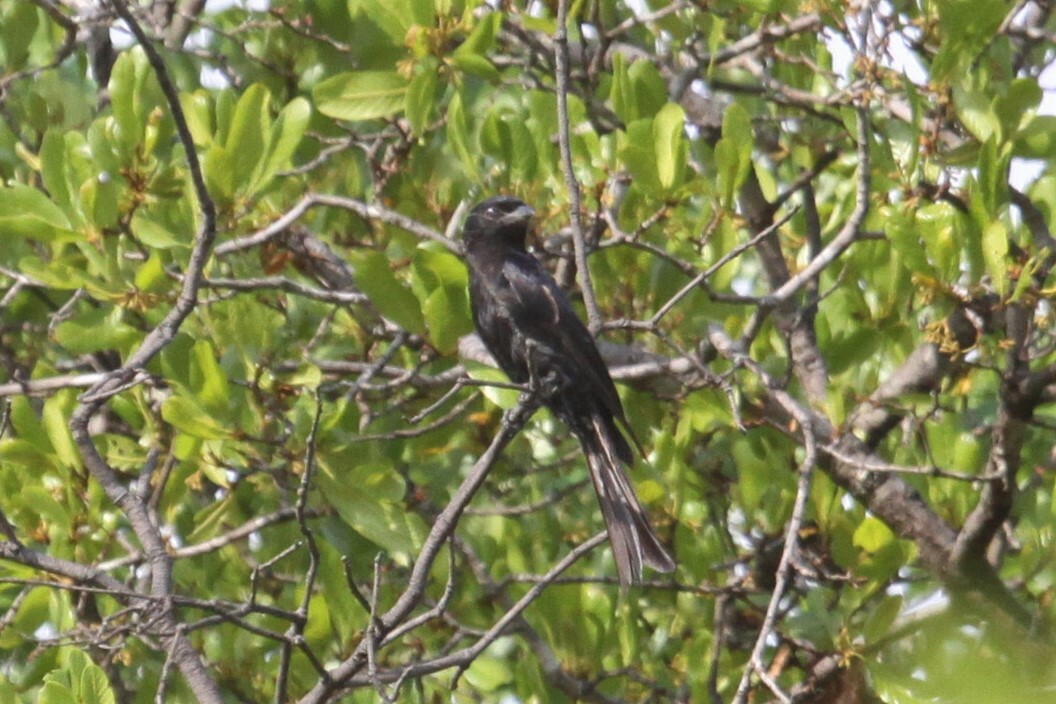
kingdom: Animalia
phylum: Chordata
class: Aves
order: Passeriformes
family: Dicruridae
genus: Dicrurus
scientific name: Dicrurus adsimilis
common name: Fork-tailed drongo
